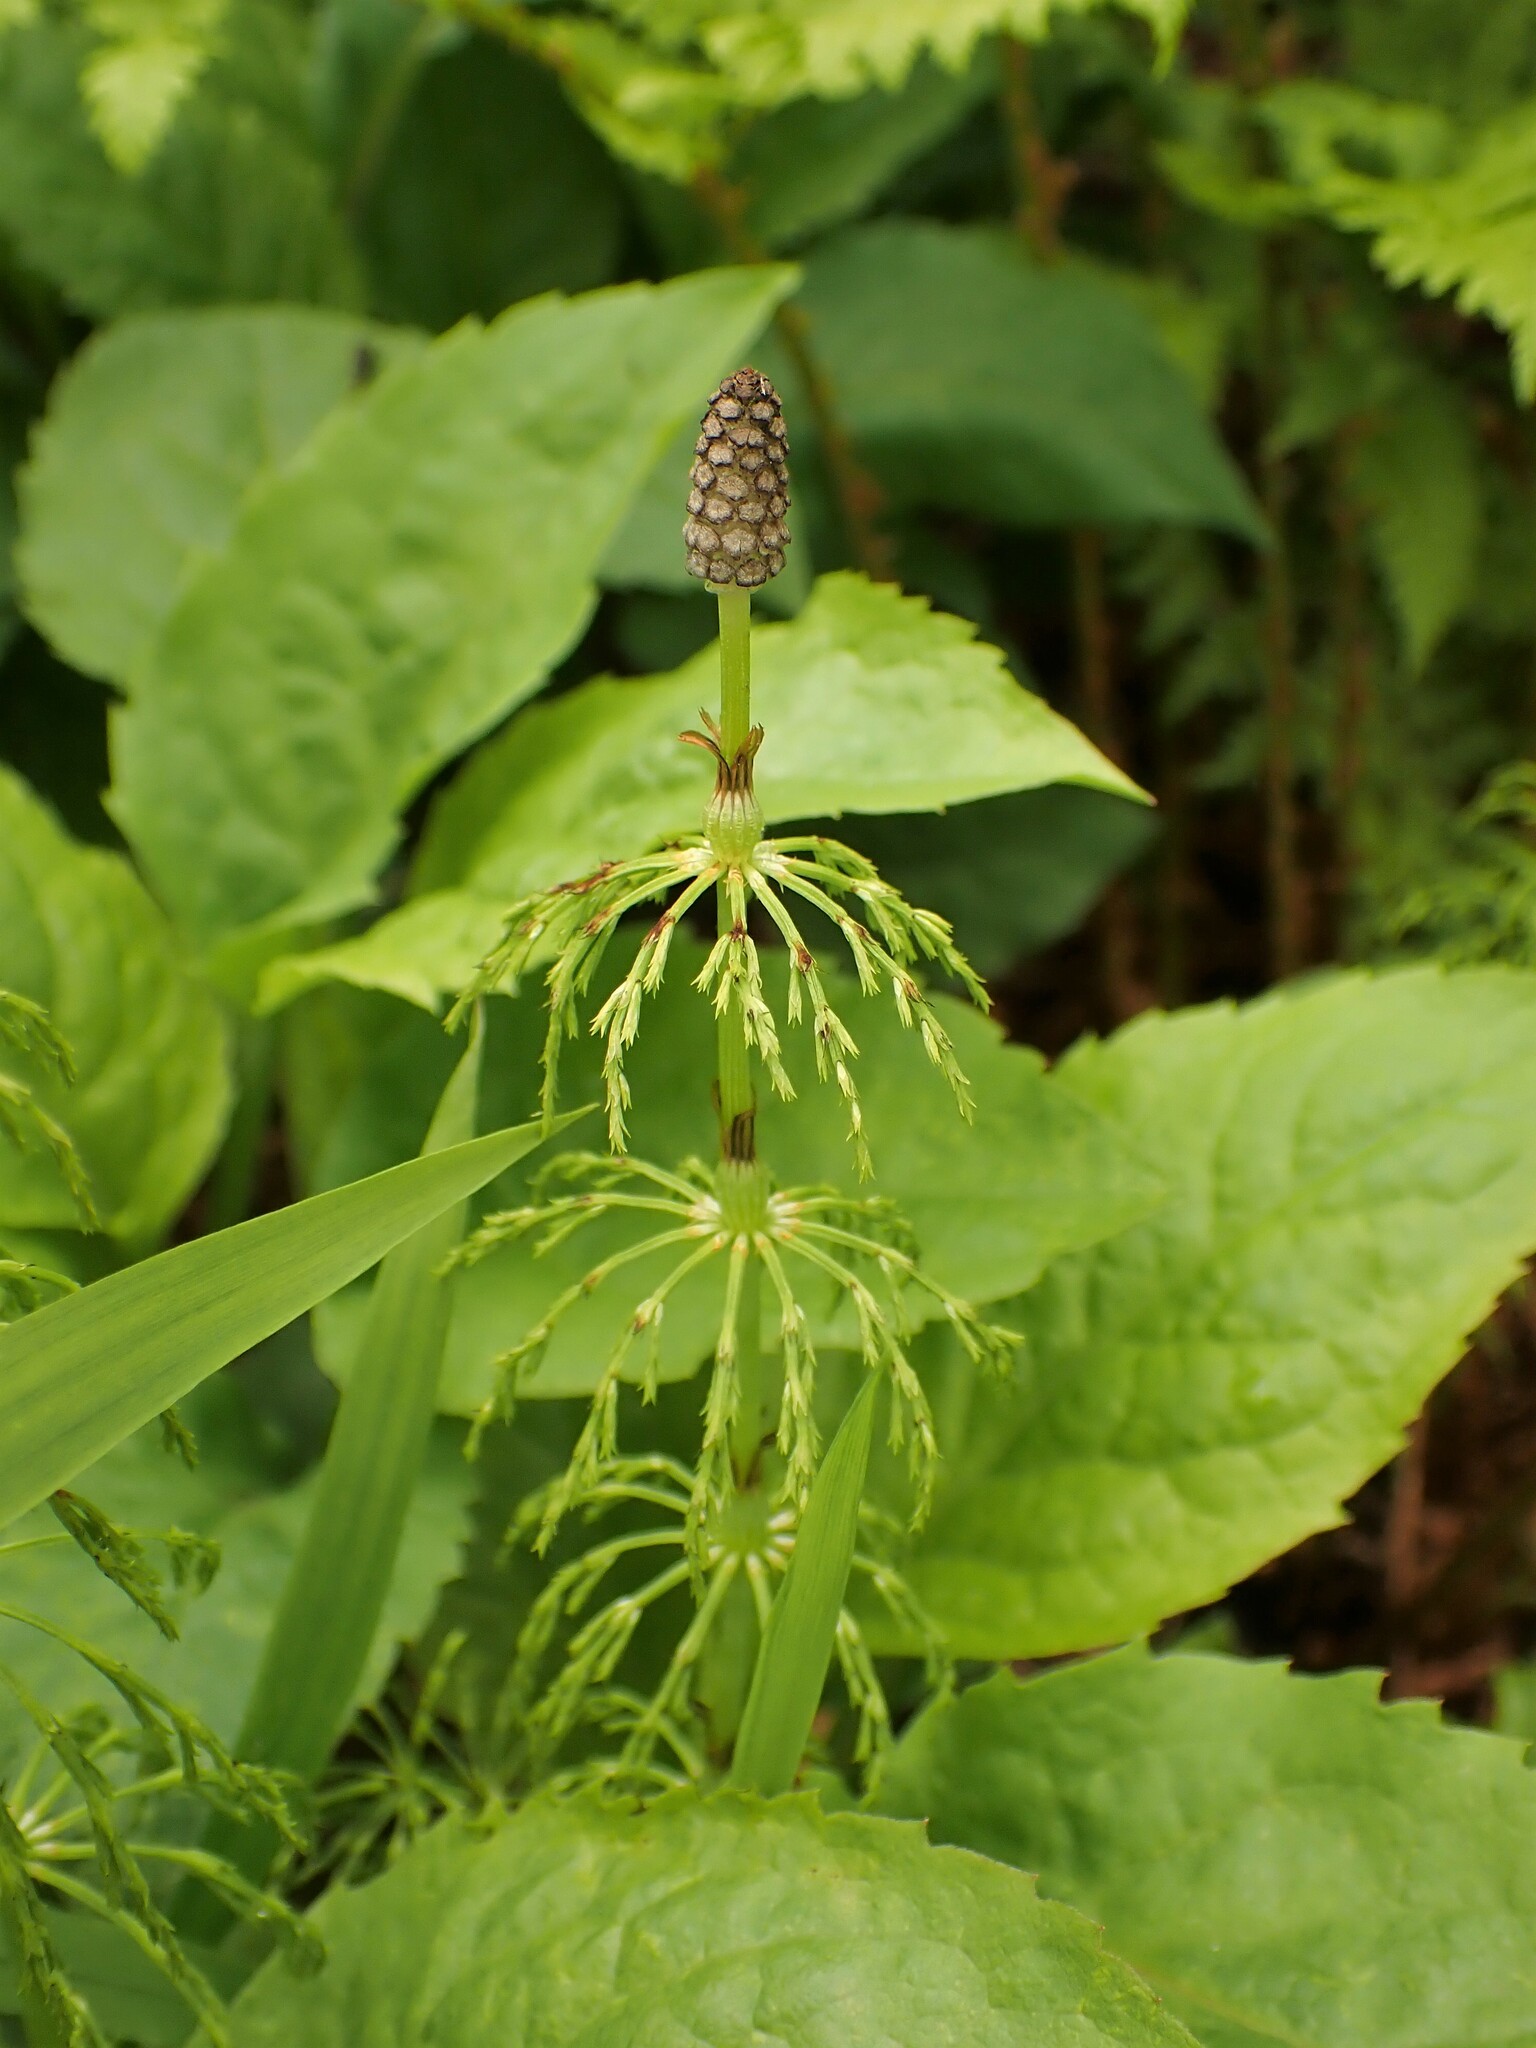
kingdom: Plantae
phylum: Tracheophyta
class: Polypodiopsida
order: Equisetales
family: Equisetaceae
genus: Equisetum
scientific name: Equisetum sylvaticum
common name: Wood horsetail
